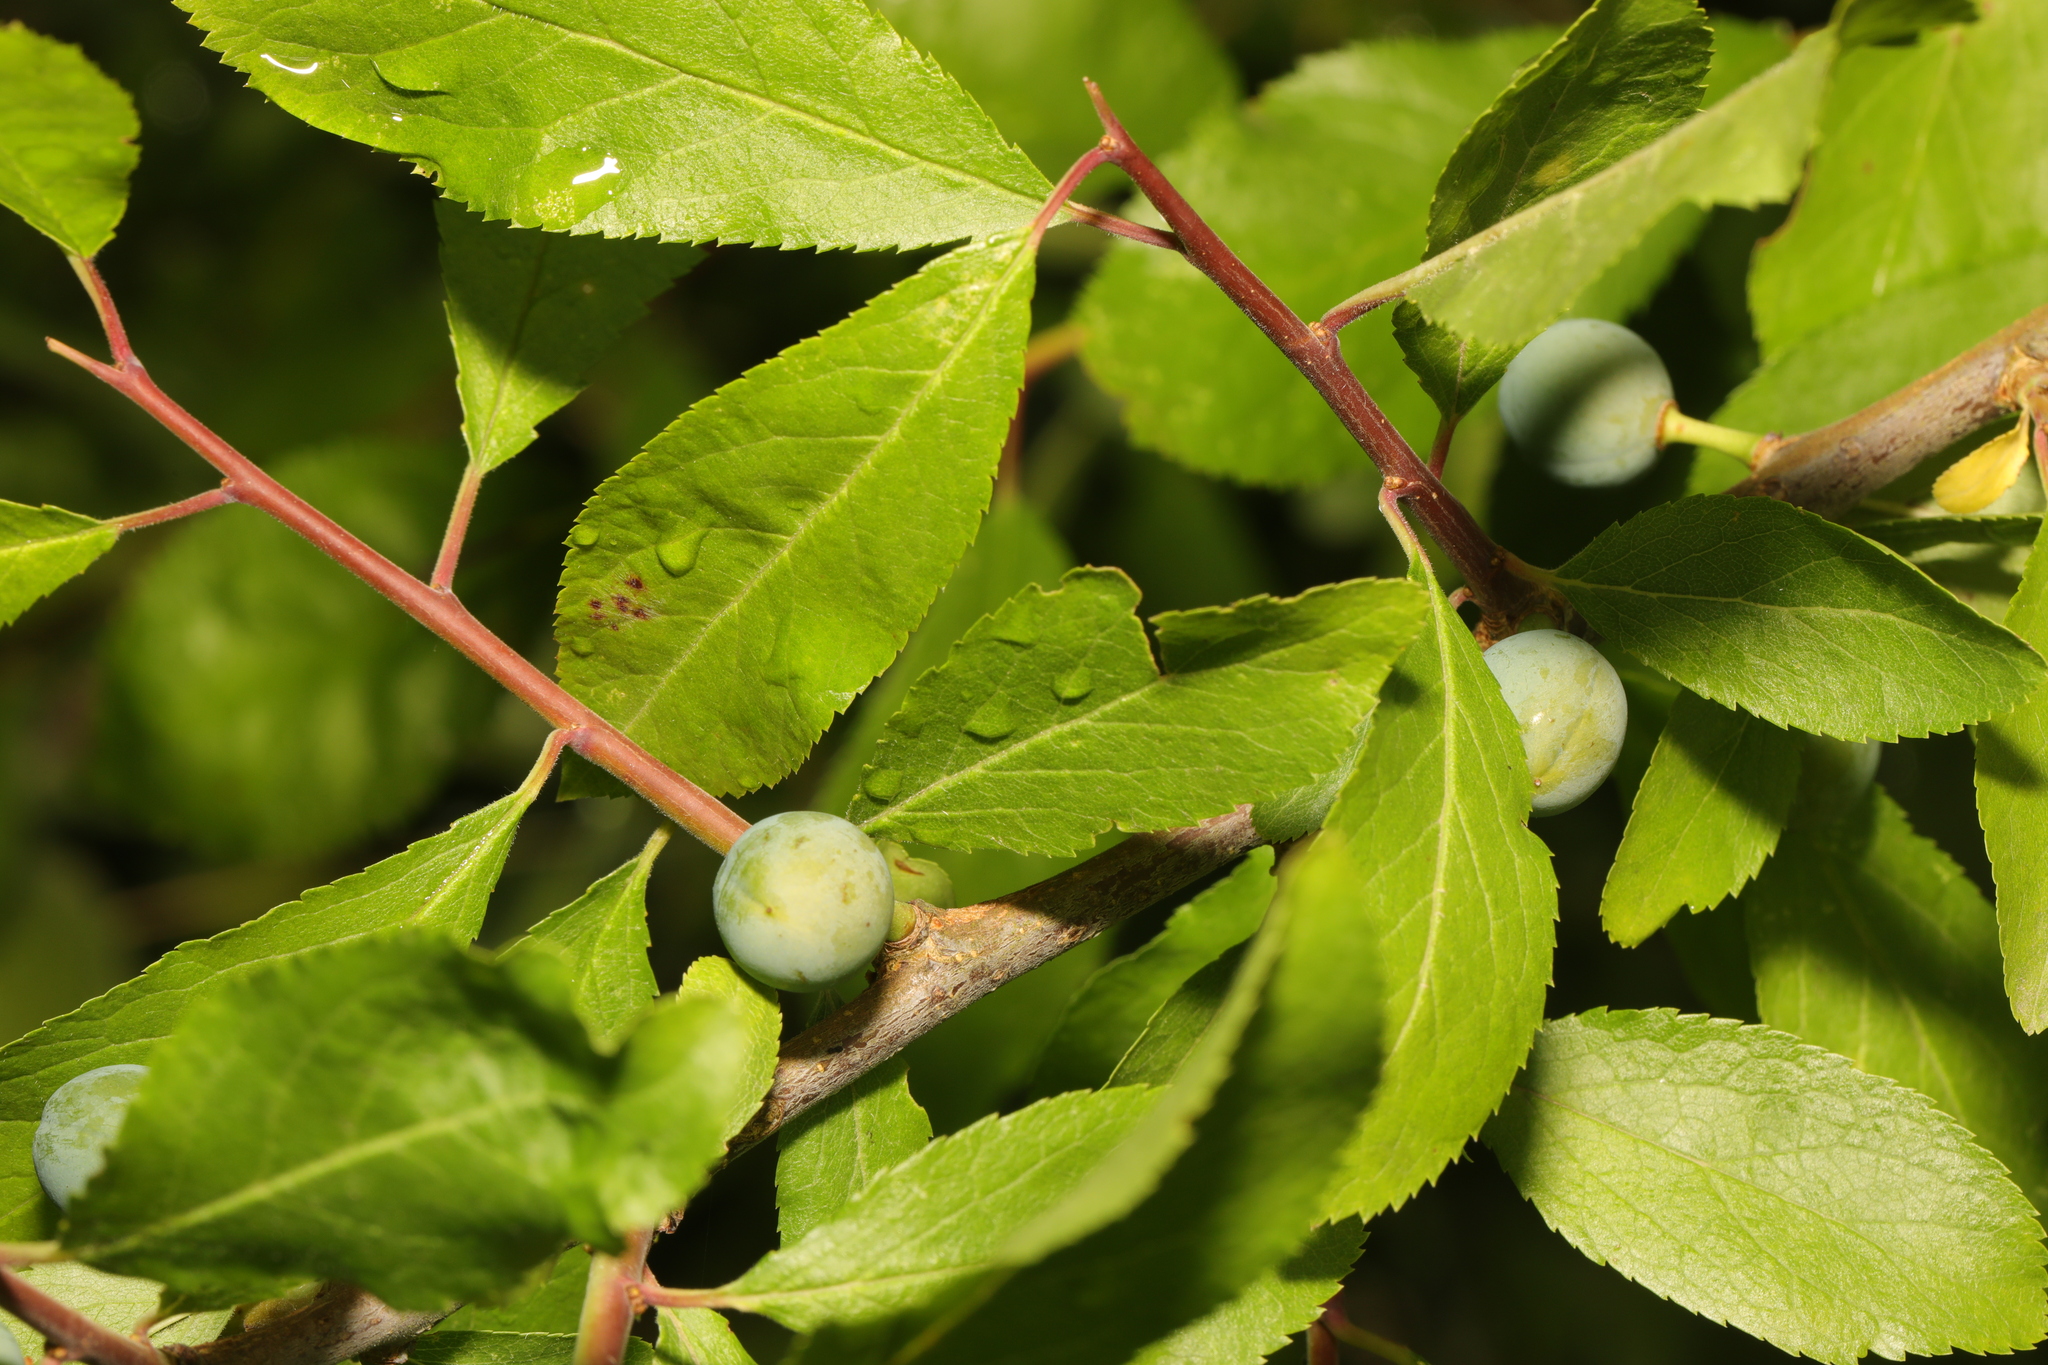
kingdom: Plantae
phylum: Tracheophyta
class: Magnoliopsida
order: Rosales
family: Rosaceae
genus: Prunus
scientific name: Prunus spinosa
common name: Blackthorn
